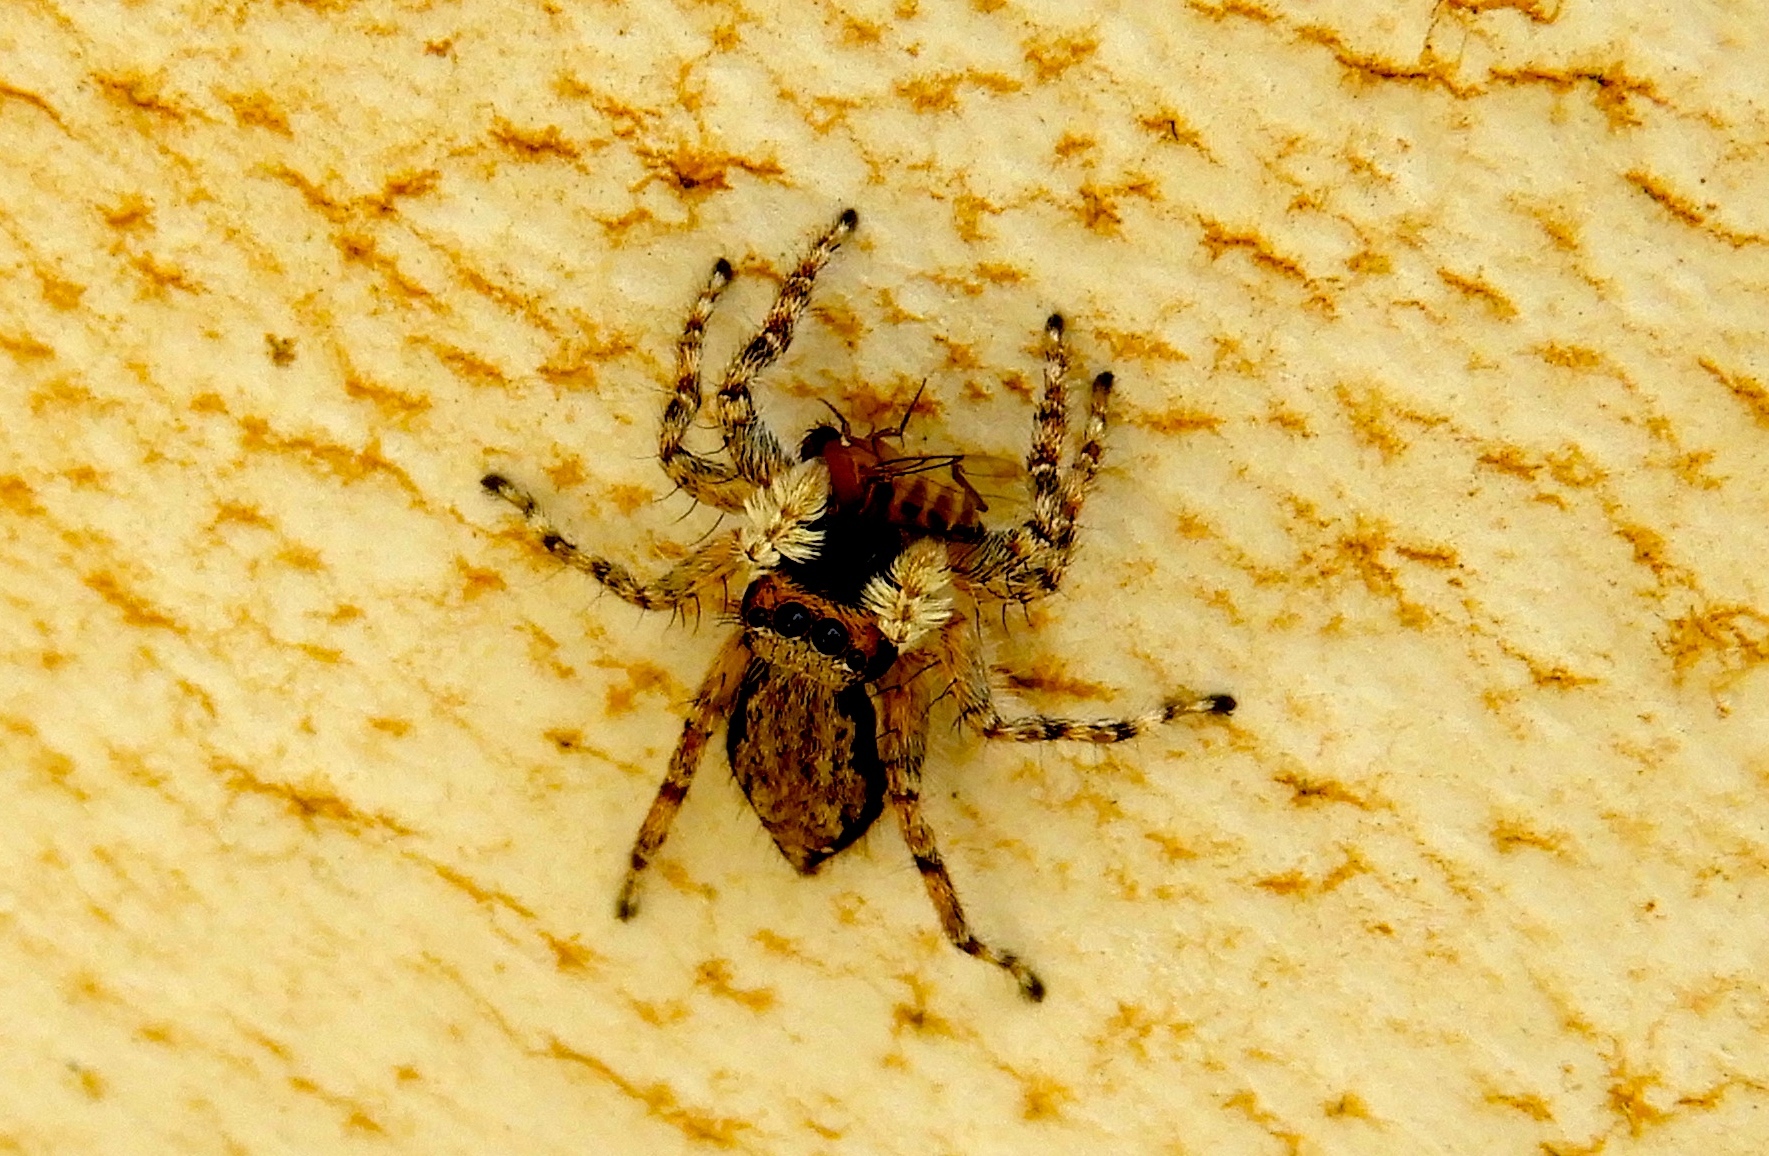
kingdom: Animalia
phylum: Arthropoda
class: Arachnida
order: Araneae
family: Salticidae
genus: Menemerus
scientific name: Menemerus bivittatus
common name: Gray wall jumper
